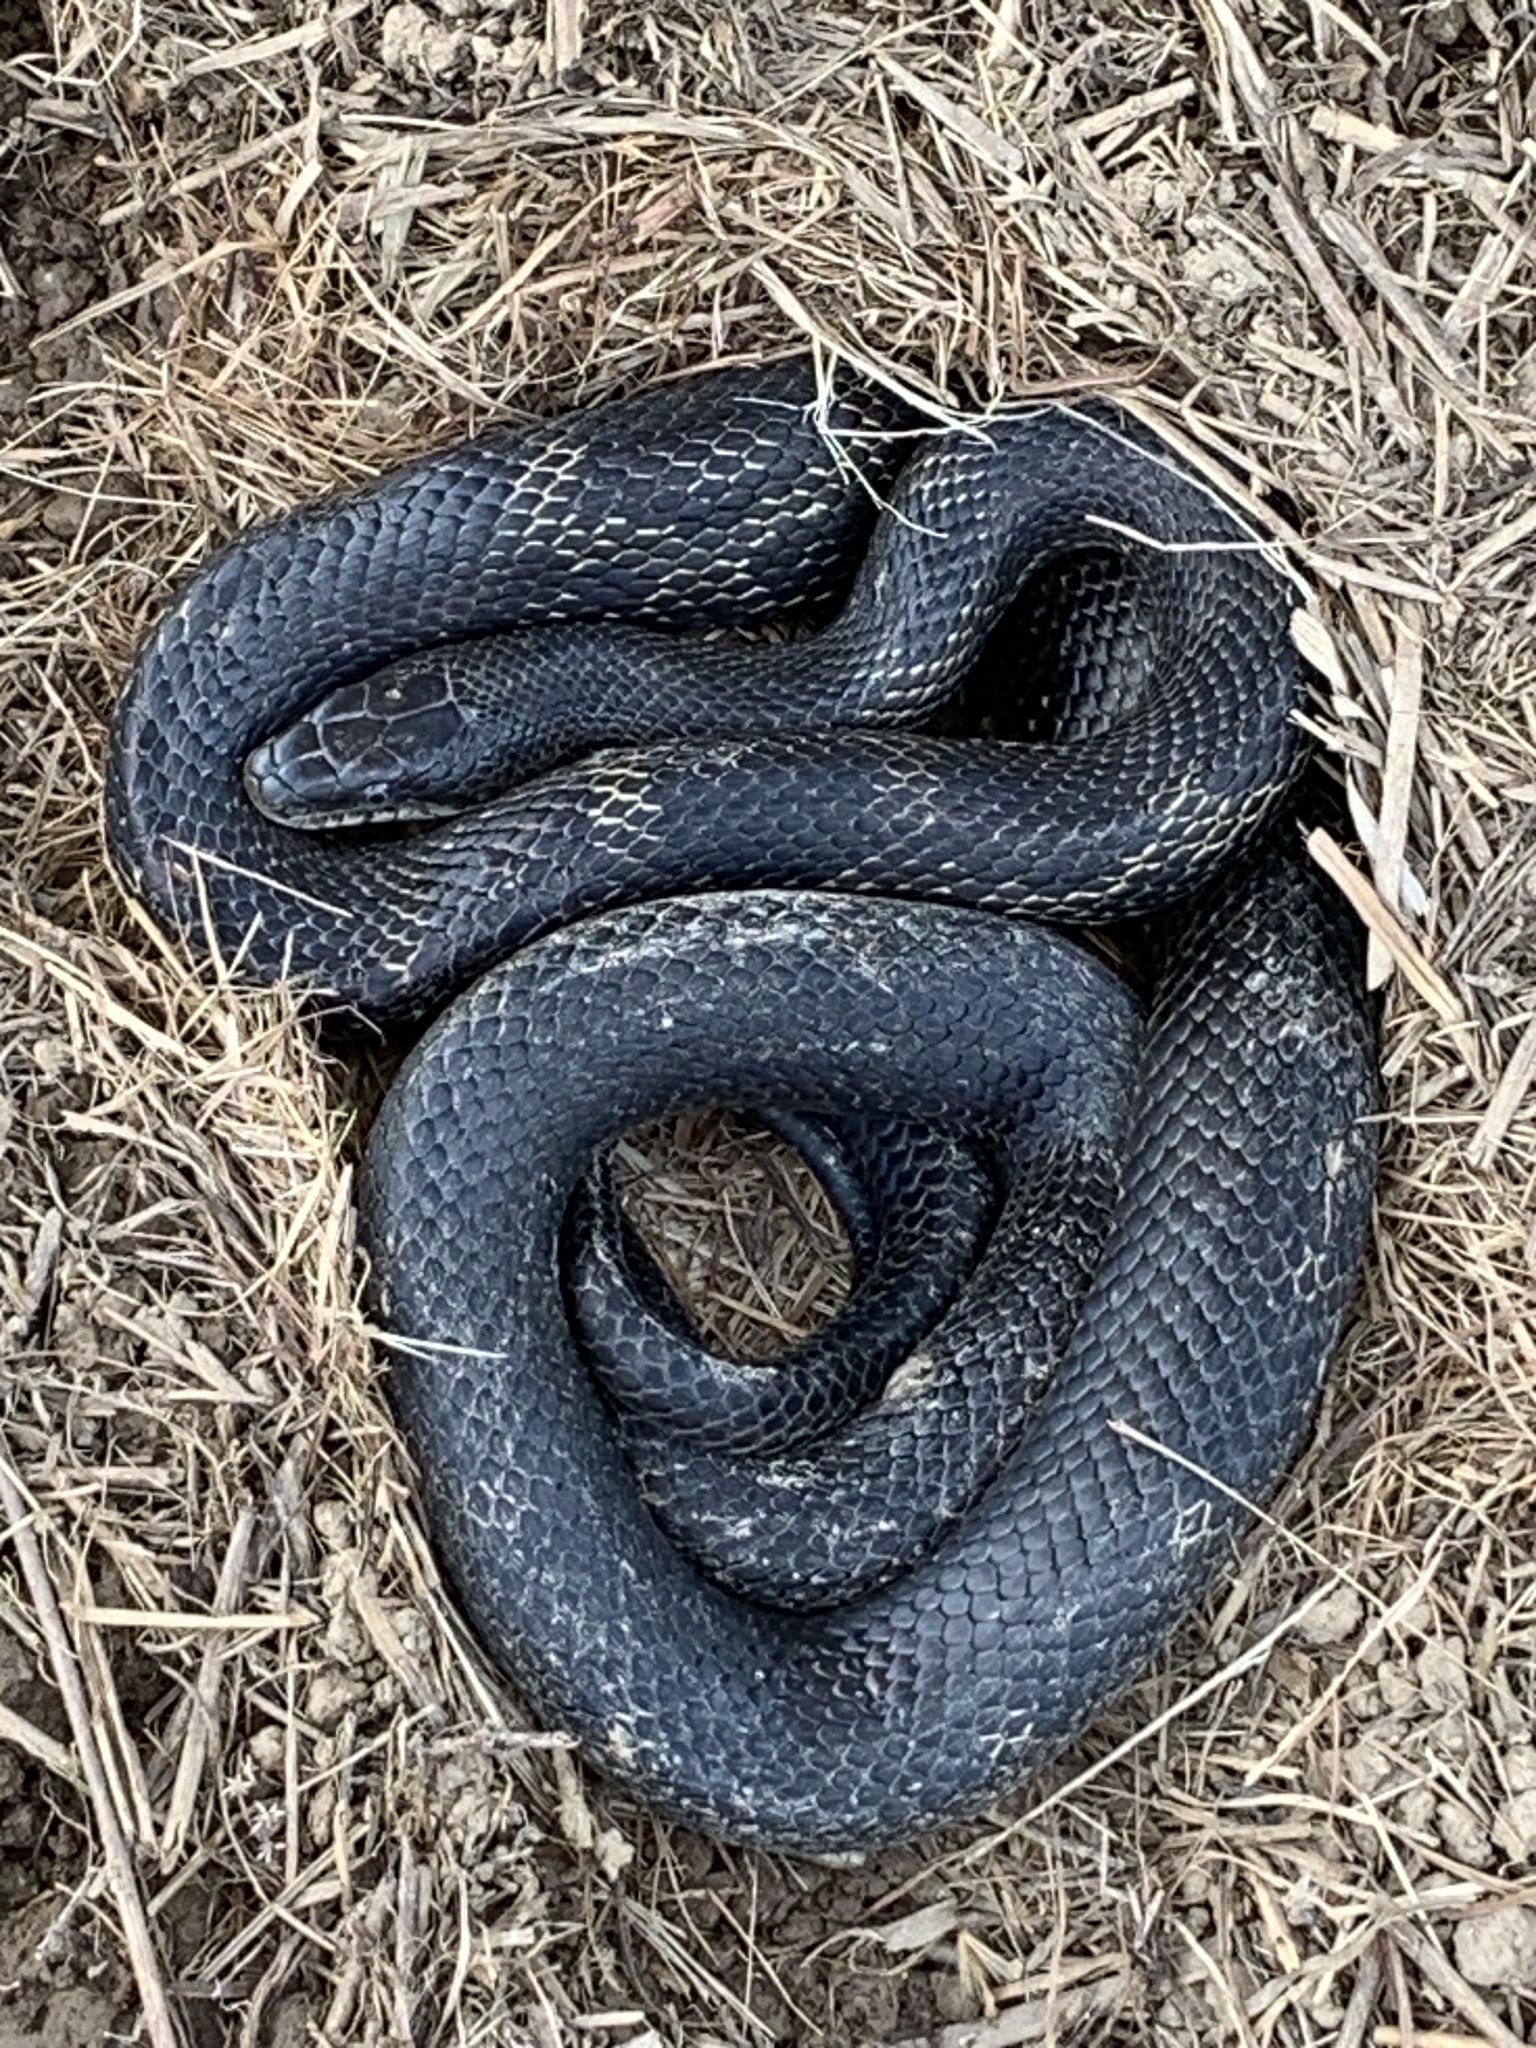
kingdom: Animalia
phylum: Chordata
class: Squamata
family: Colubridae
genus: Pantherophis
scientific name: Pantherophis spiloides
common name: Gray rat snake
